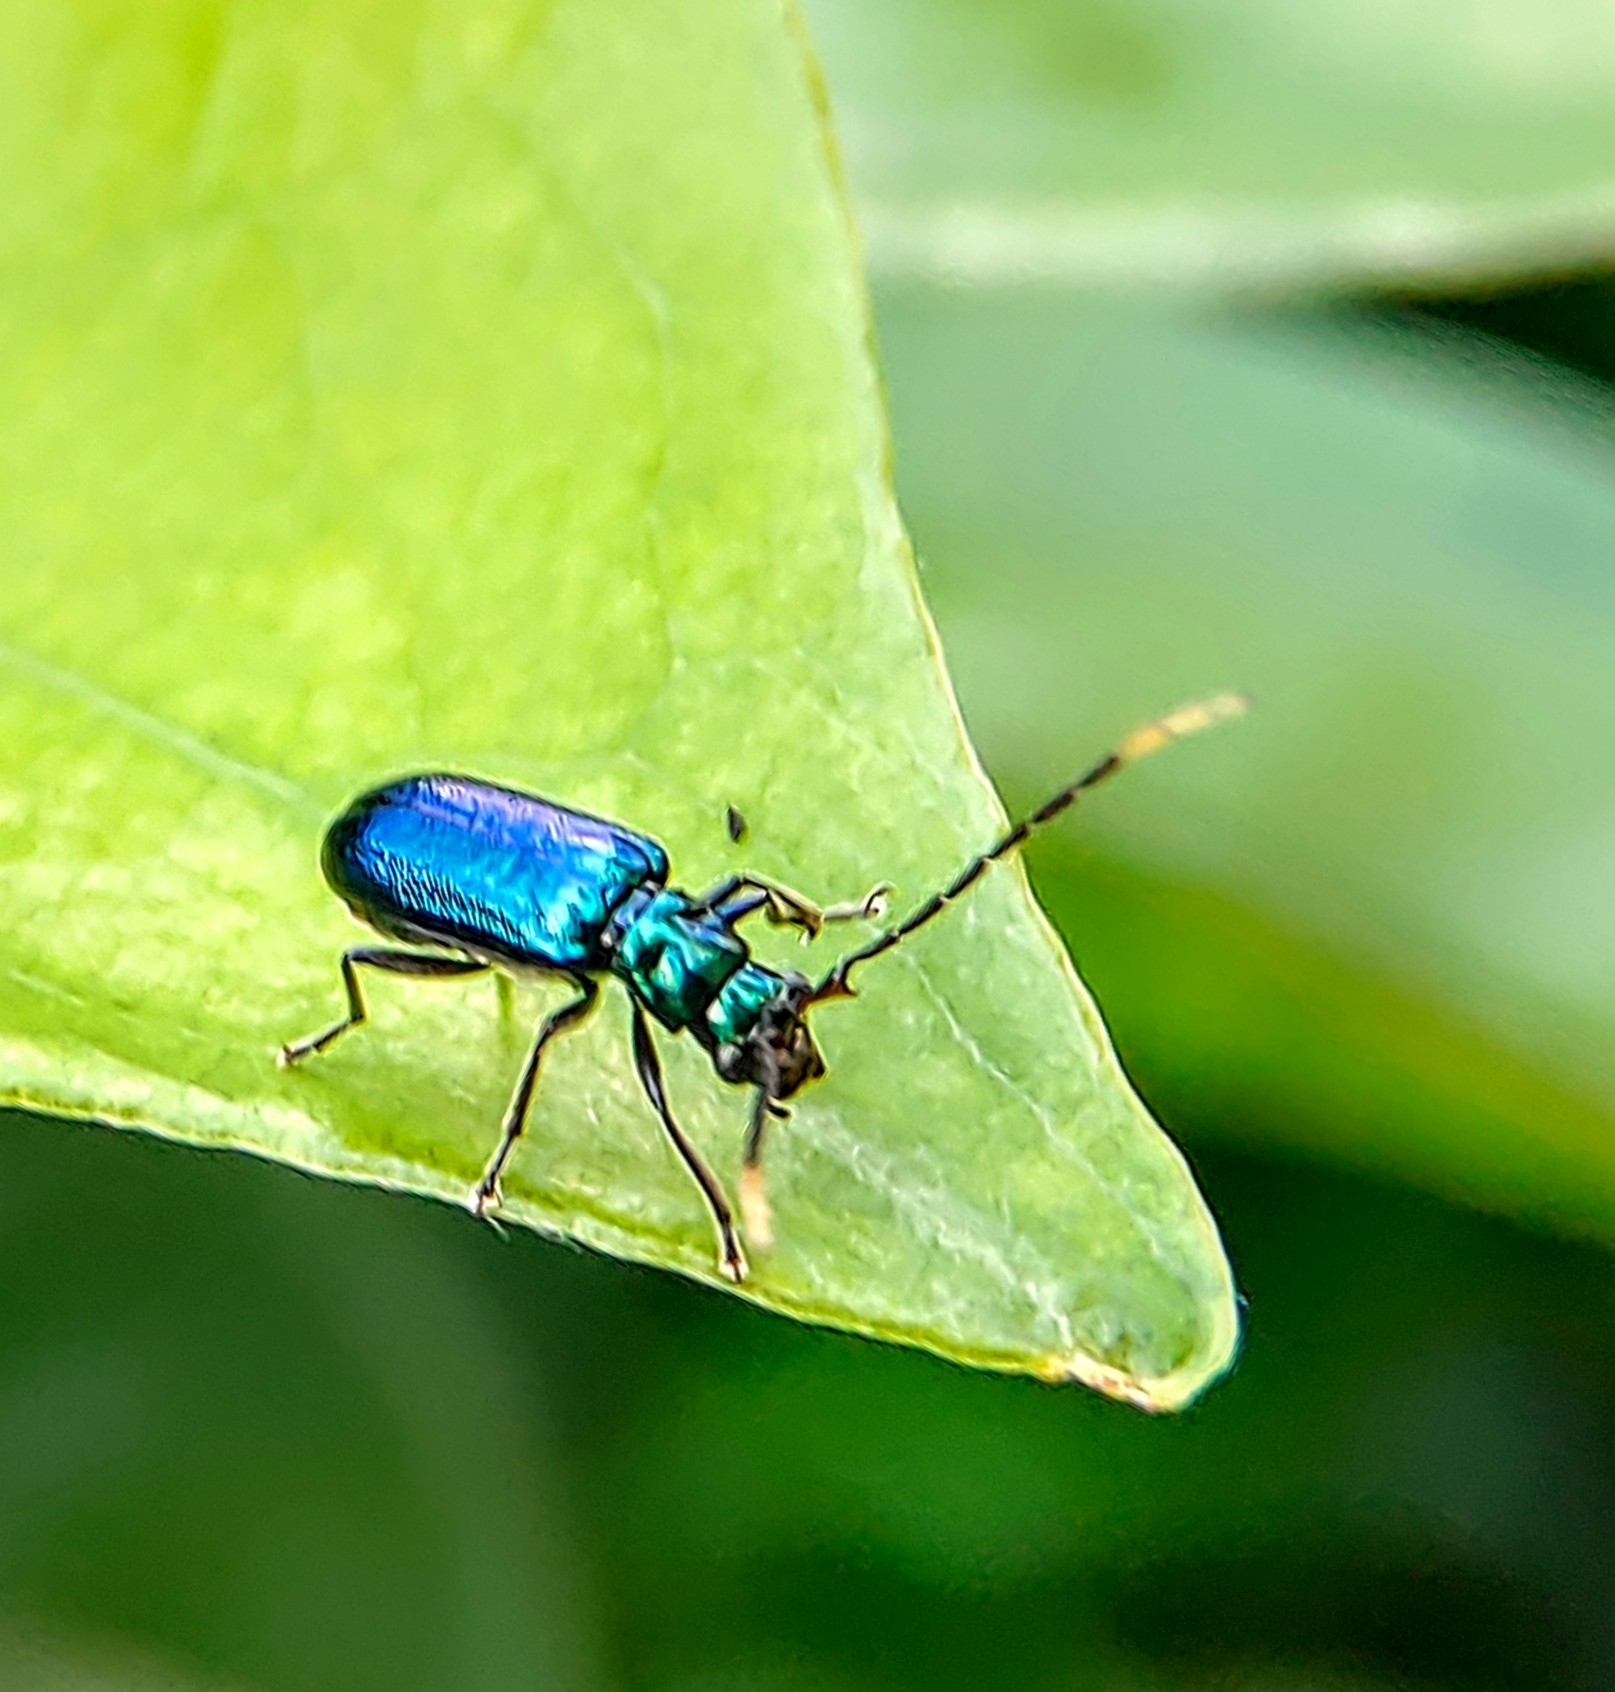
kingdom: Animalia
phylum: Arthropoda
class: Insecta
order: Coleoptera
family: Chrysomelidae
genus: Hoplosaenidea
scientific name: Hoplosaenidea
